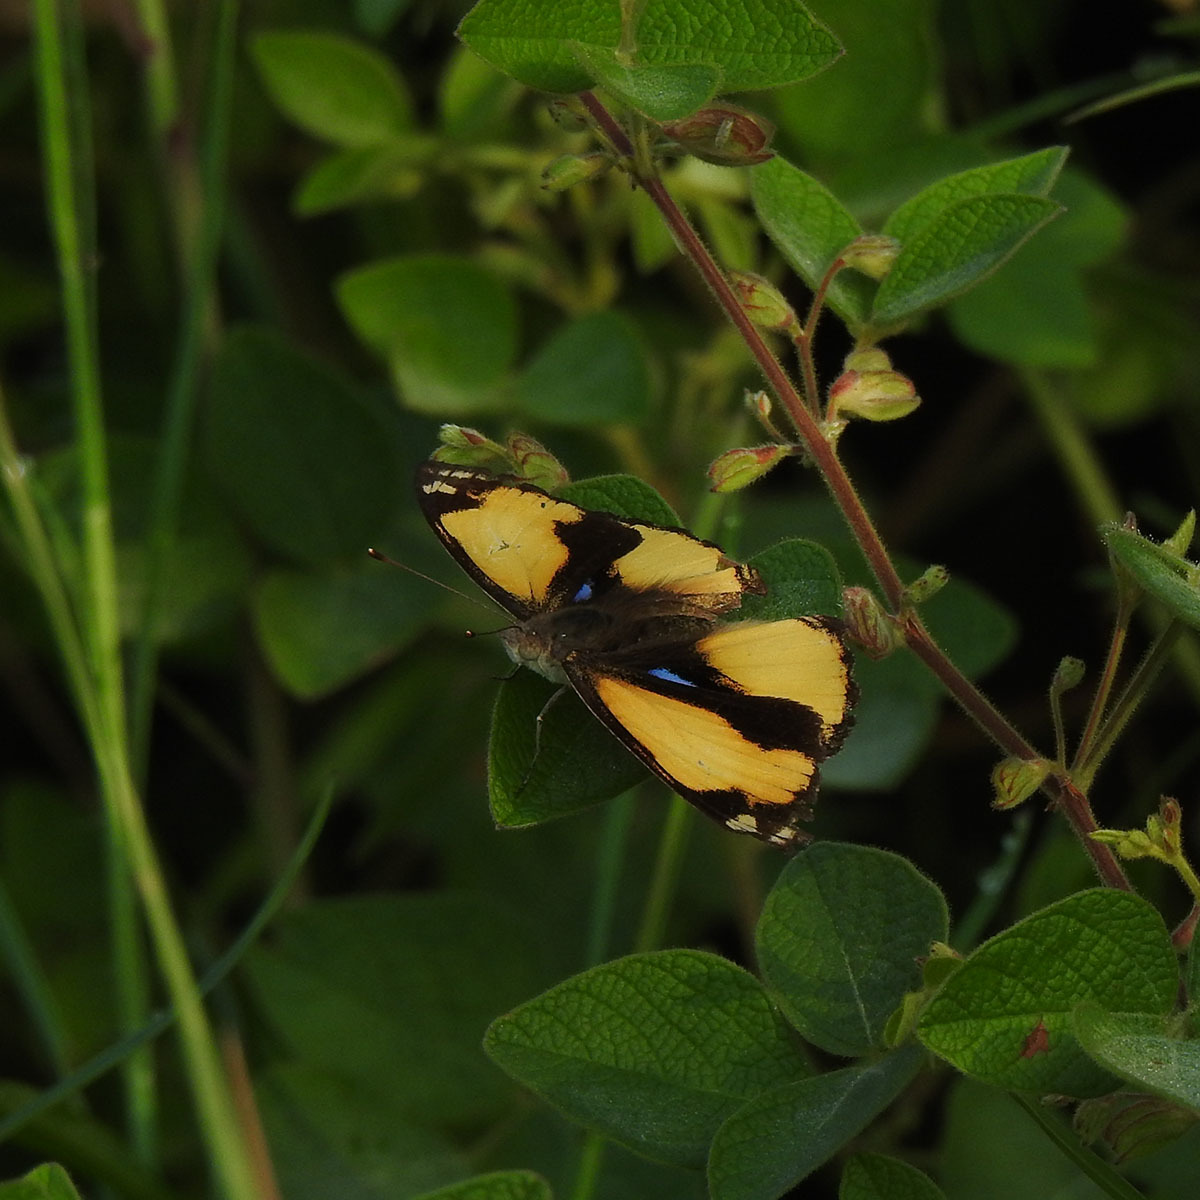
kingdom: Animalia
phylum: Arthropoda
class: Insecta
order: Lepidoptera
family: Nymphalidae
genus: Junonia
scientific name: Junonia hierta
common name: Yellow pansy
